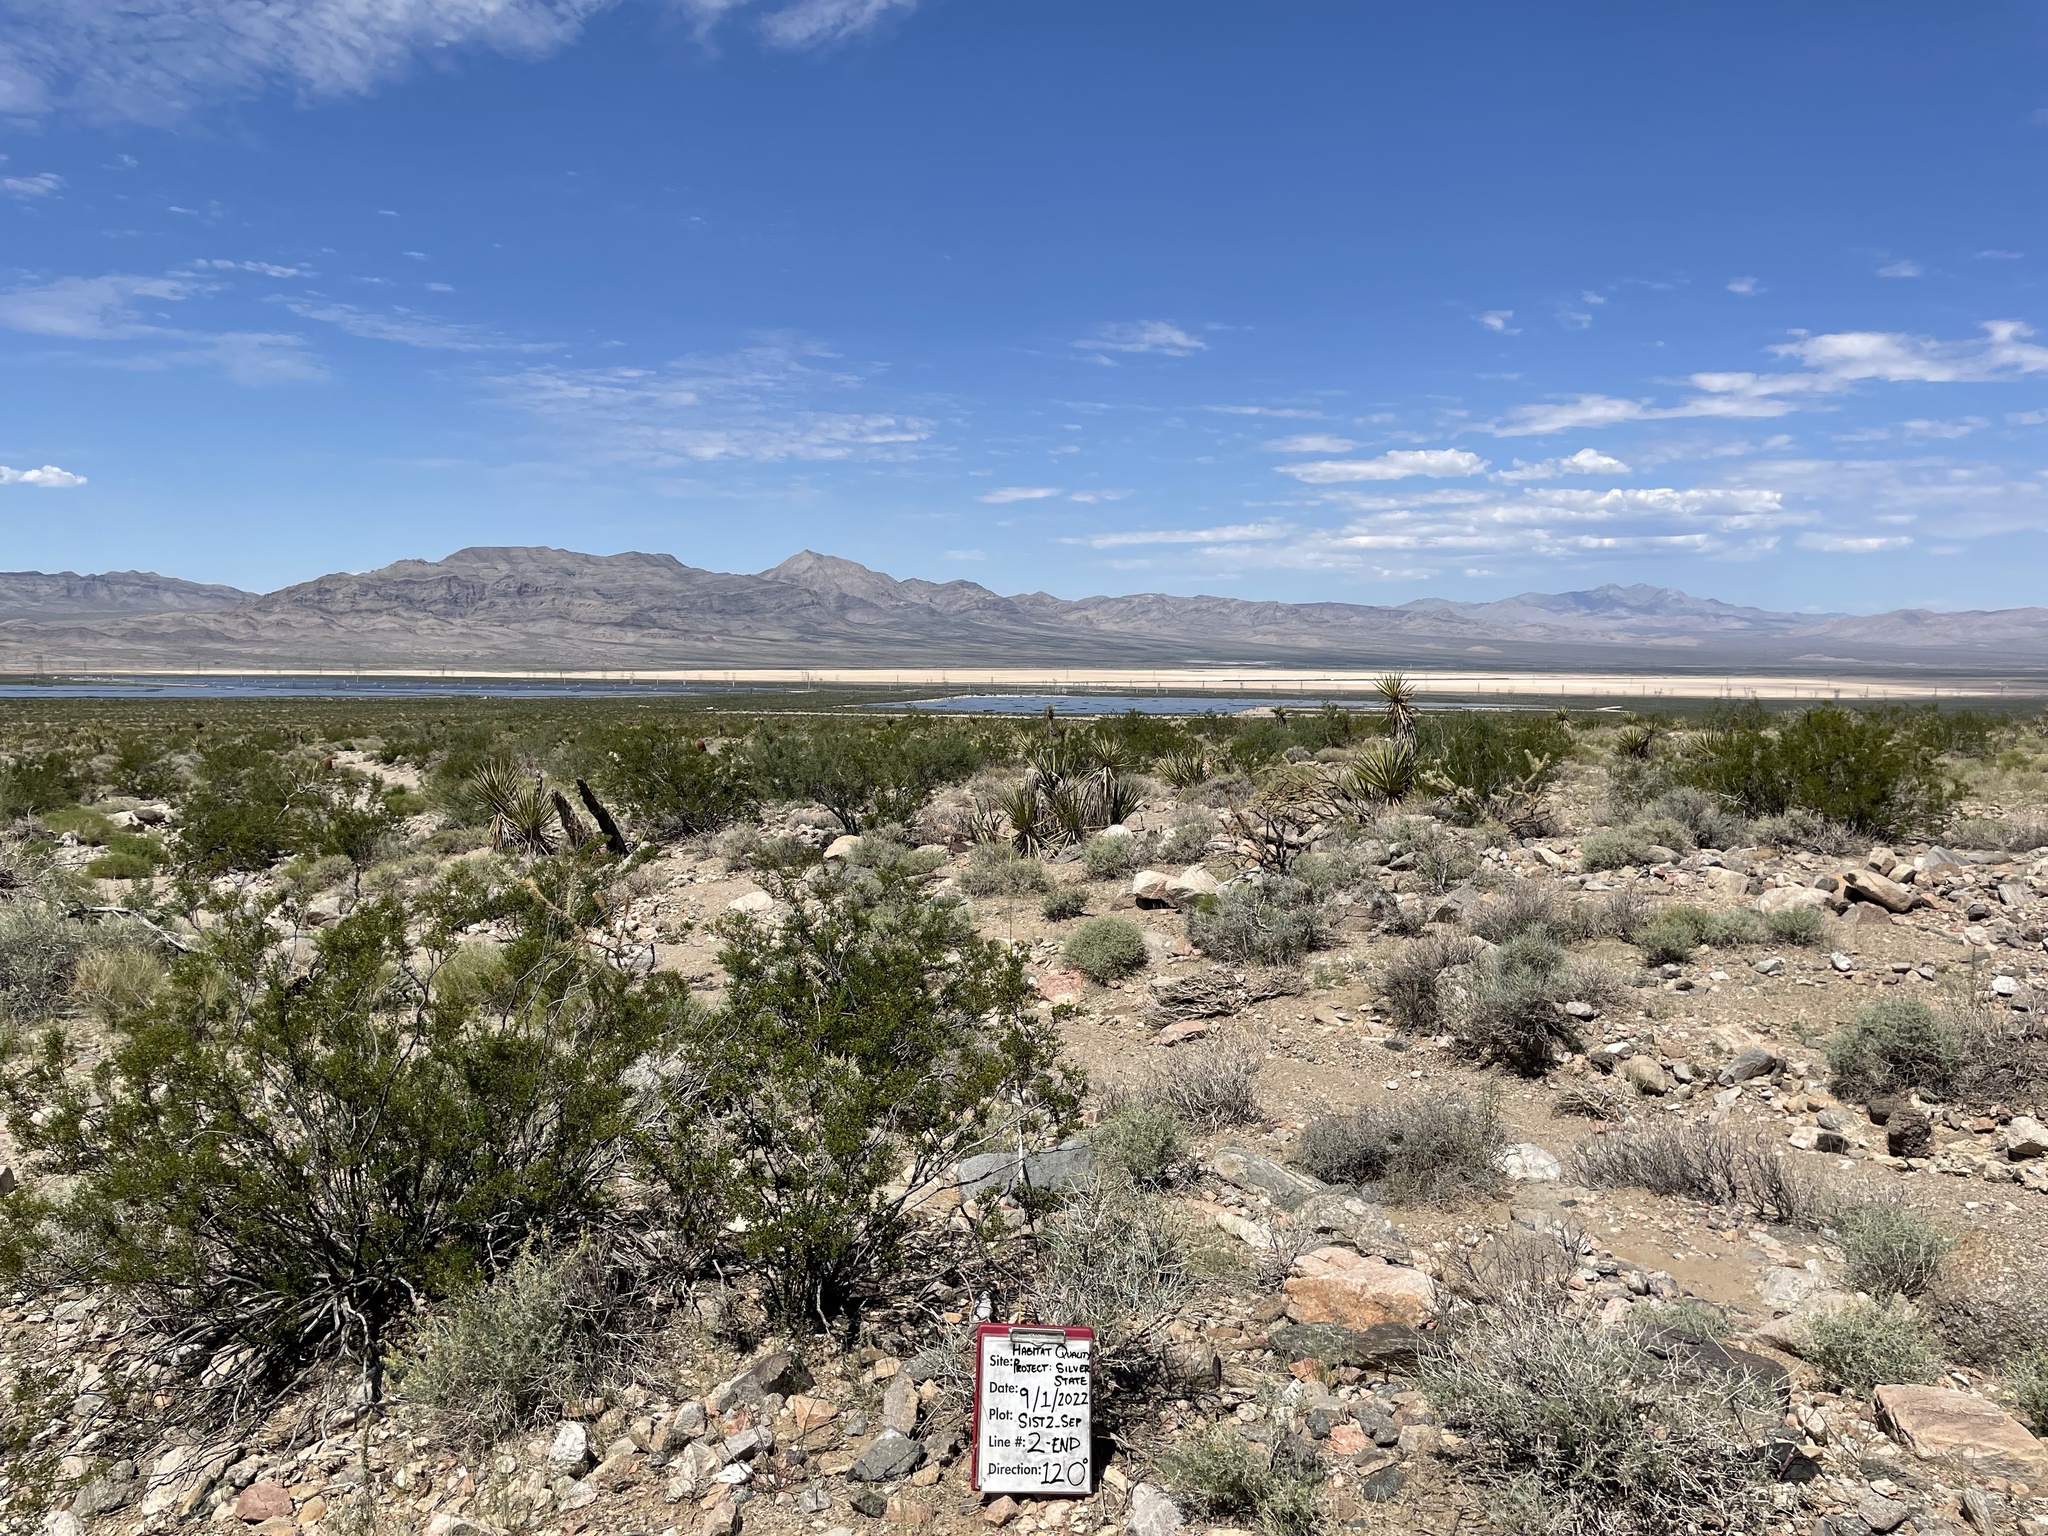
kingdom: Plantae
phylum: Tracheophyta
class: Magnoliopsida
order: Zygophyllales
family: Zygophyllaceae
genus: Larrea
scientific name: Larrea tridentata
